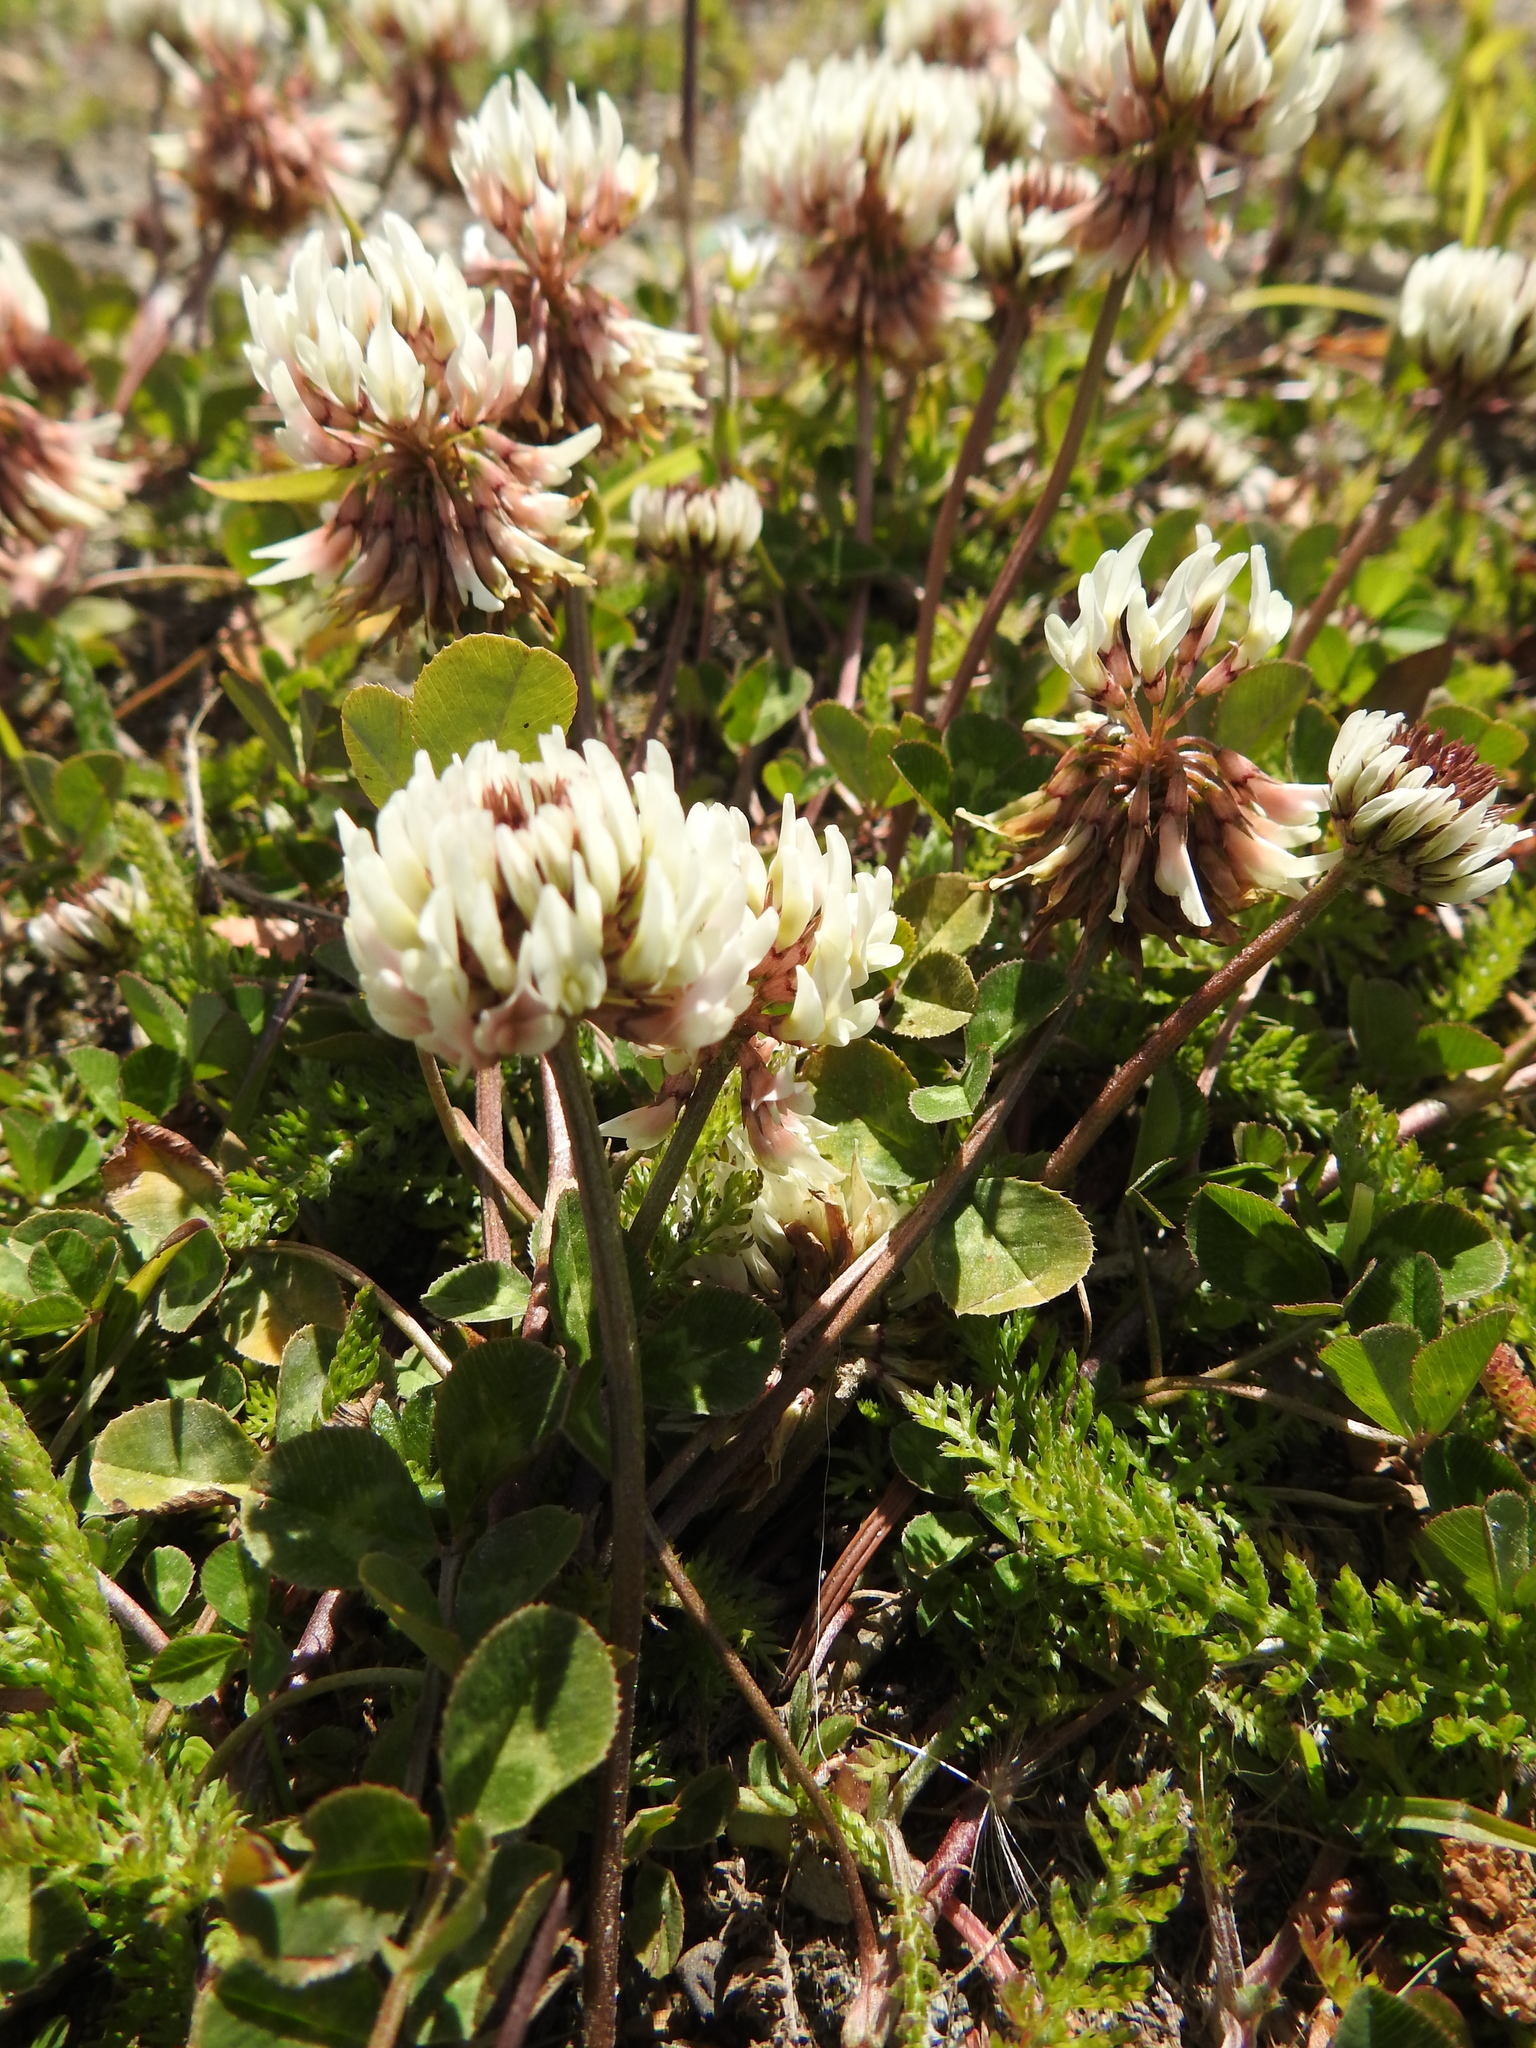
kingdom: Plantae
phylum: Tracheophyta
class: Magnoliopsida
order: Fabales
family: Fabaceae
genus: Trifolium
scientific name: Trifolium repens
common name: White clover
